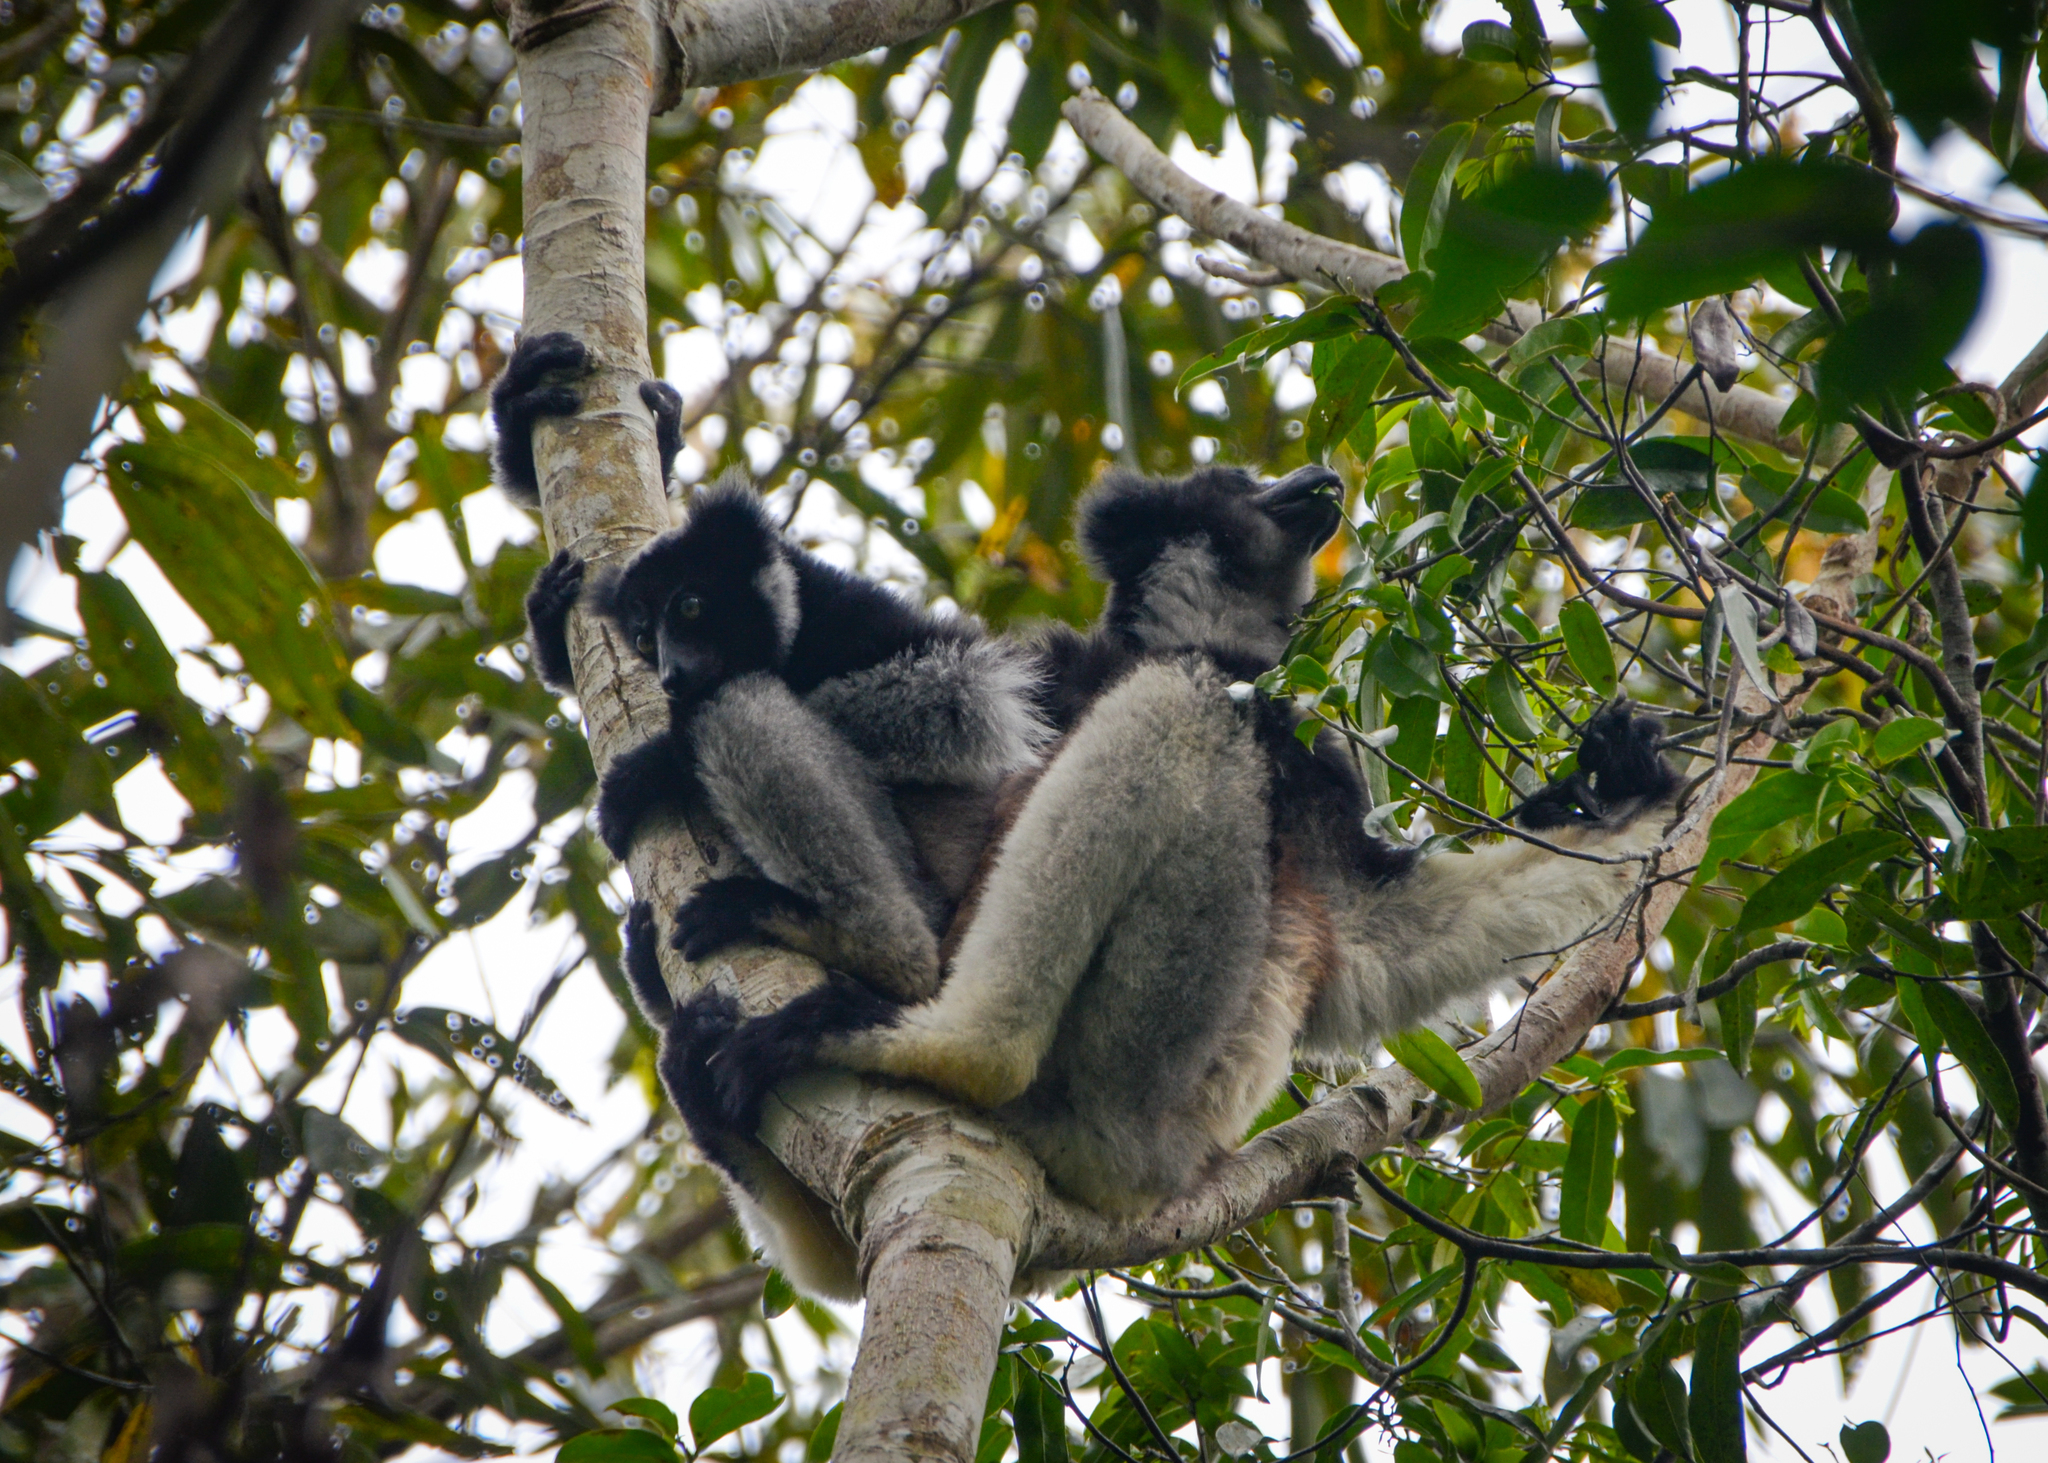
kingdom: Animalia
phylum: Chordata
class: Mammalia
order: Primates
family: Indriidae
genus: Indri
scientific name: Indri indri
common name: Indri
